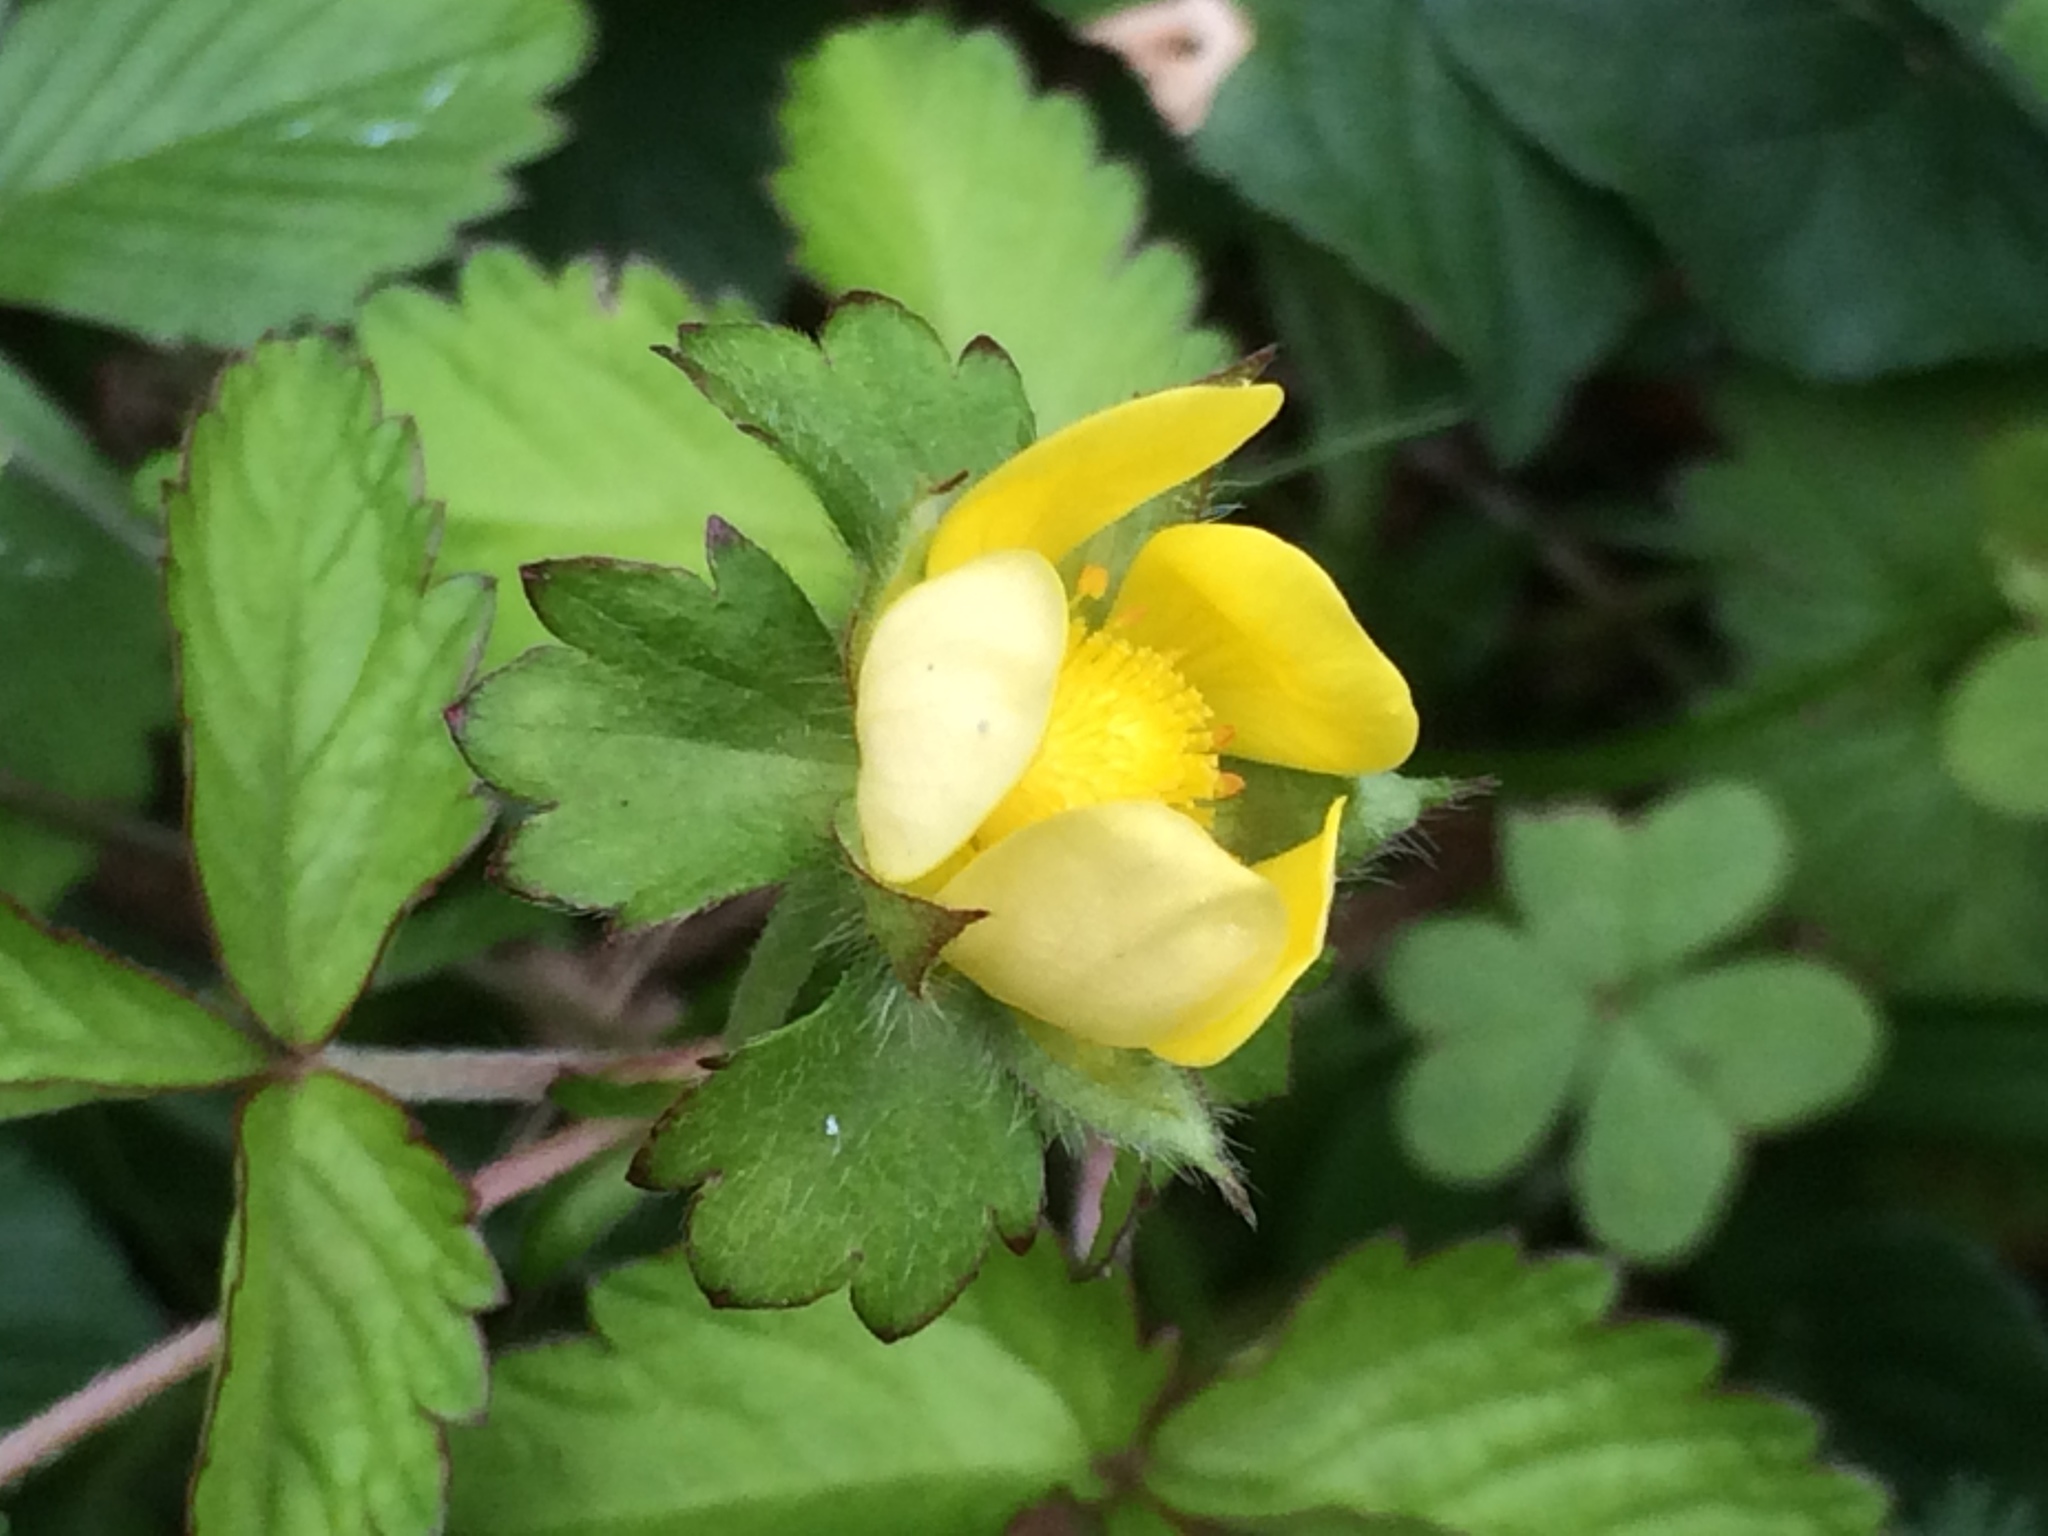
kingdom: Plantae
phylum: Tracheophyta
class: Magnoliopsida
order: Rosales
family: Rosaceae
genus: Potentilla
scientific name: Potentilla indica
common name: Yellow-flowered strawberry
